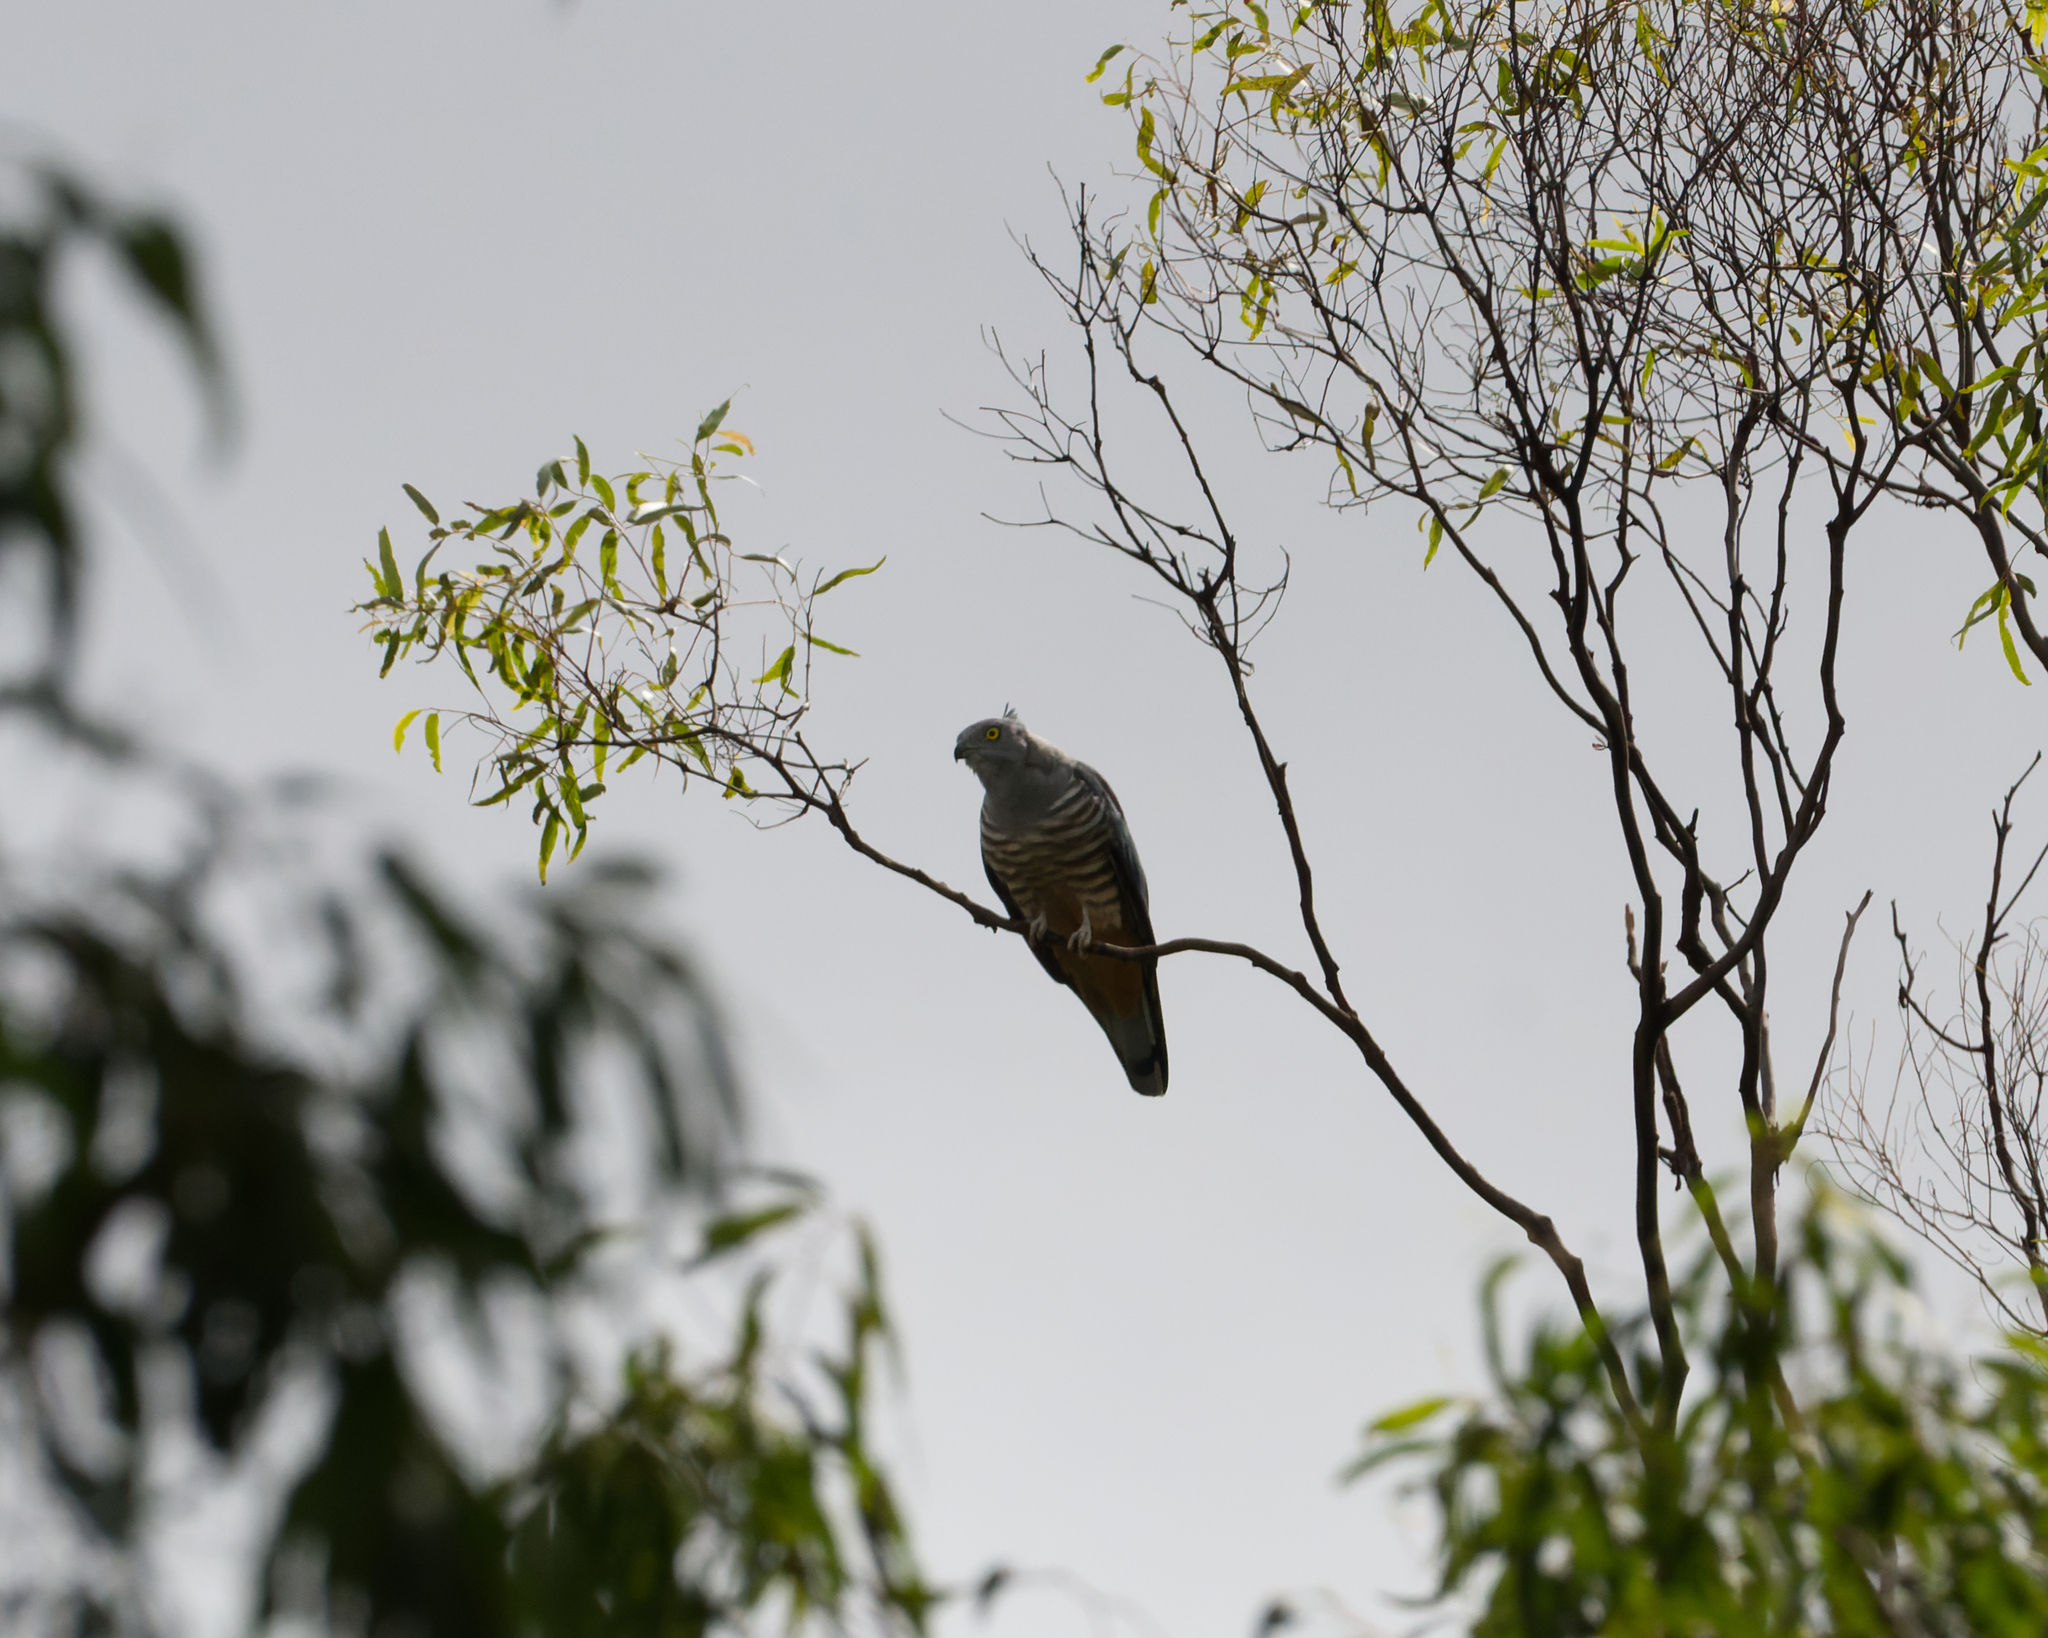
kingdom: Animalia
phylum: Chordata
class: Aves
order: Accipitriformes
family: Accipitridae
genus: Aviceda
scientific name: Aviceda subcristata
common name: Pacific baza
